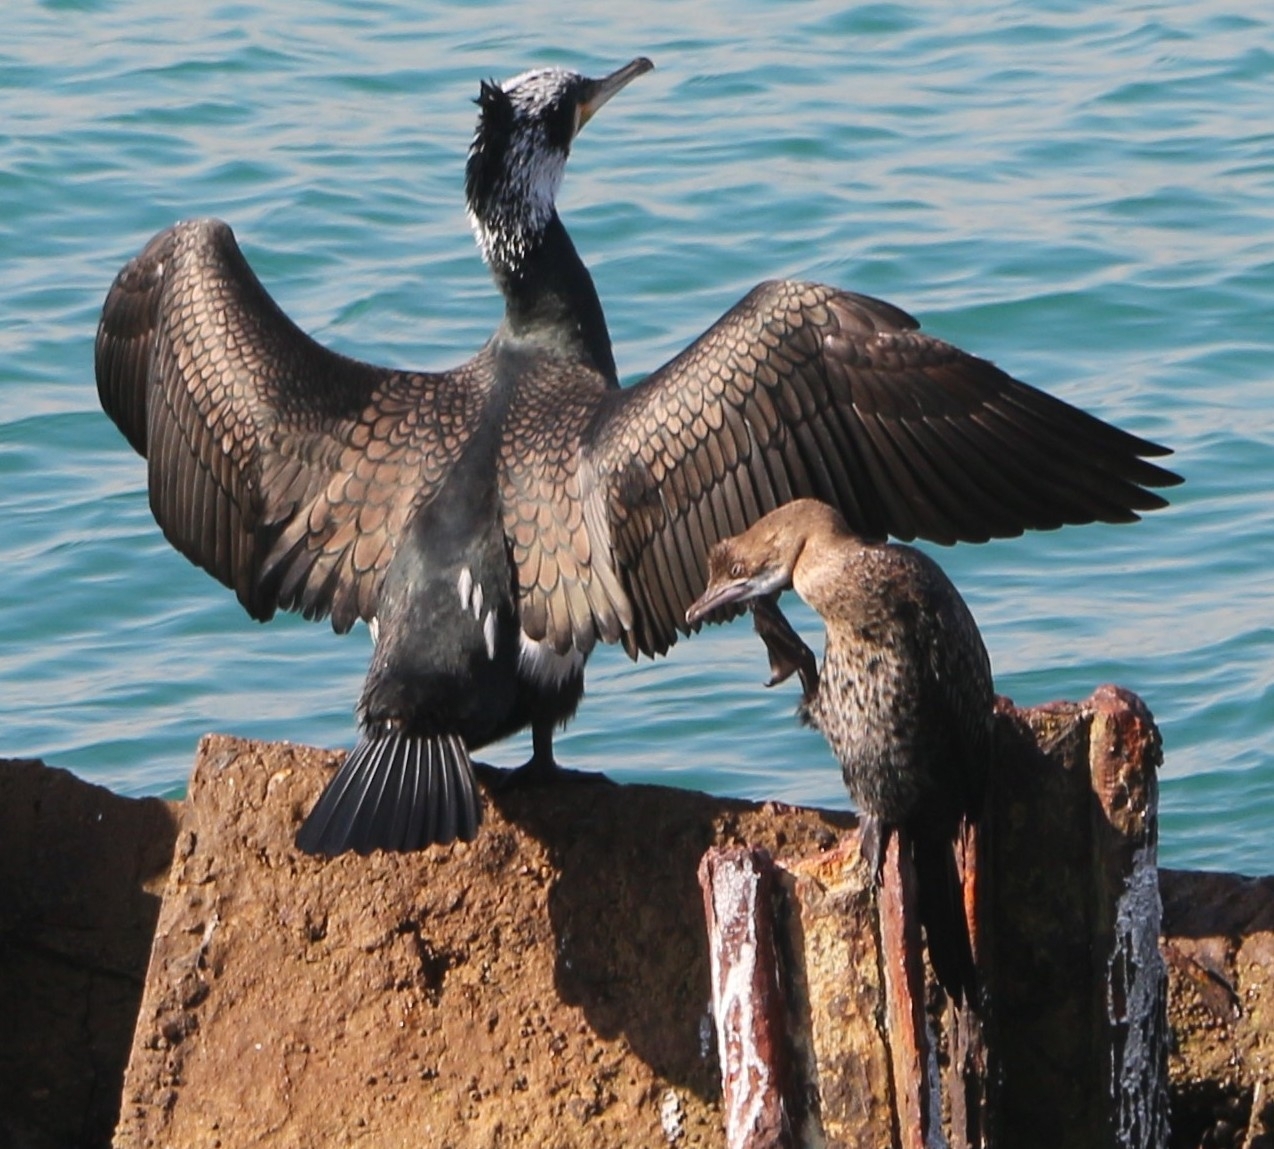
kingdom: Animalia
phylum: Chordata
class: Aves
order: Suliformes
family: Phalacrocoracidae
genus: Phalacrocorax
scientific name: Phalacrocorax carbo
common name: Great cormorant
